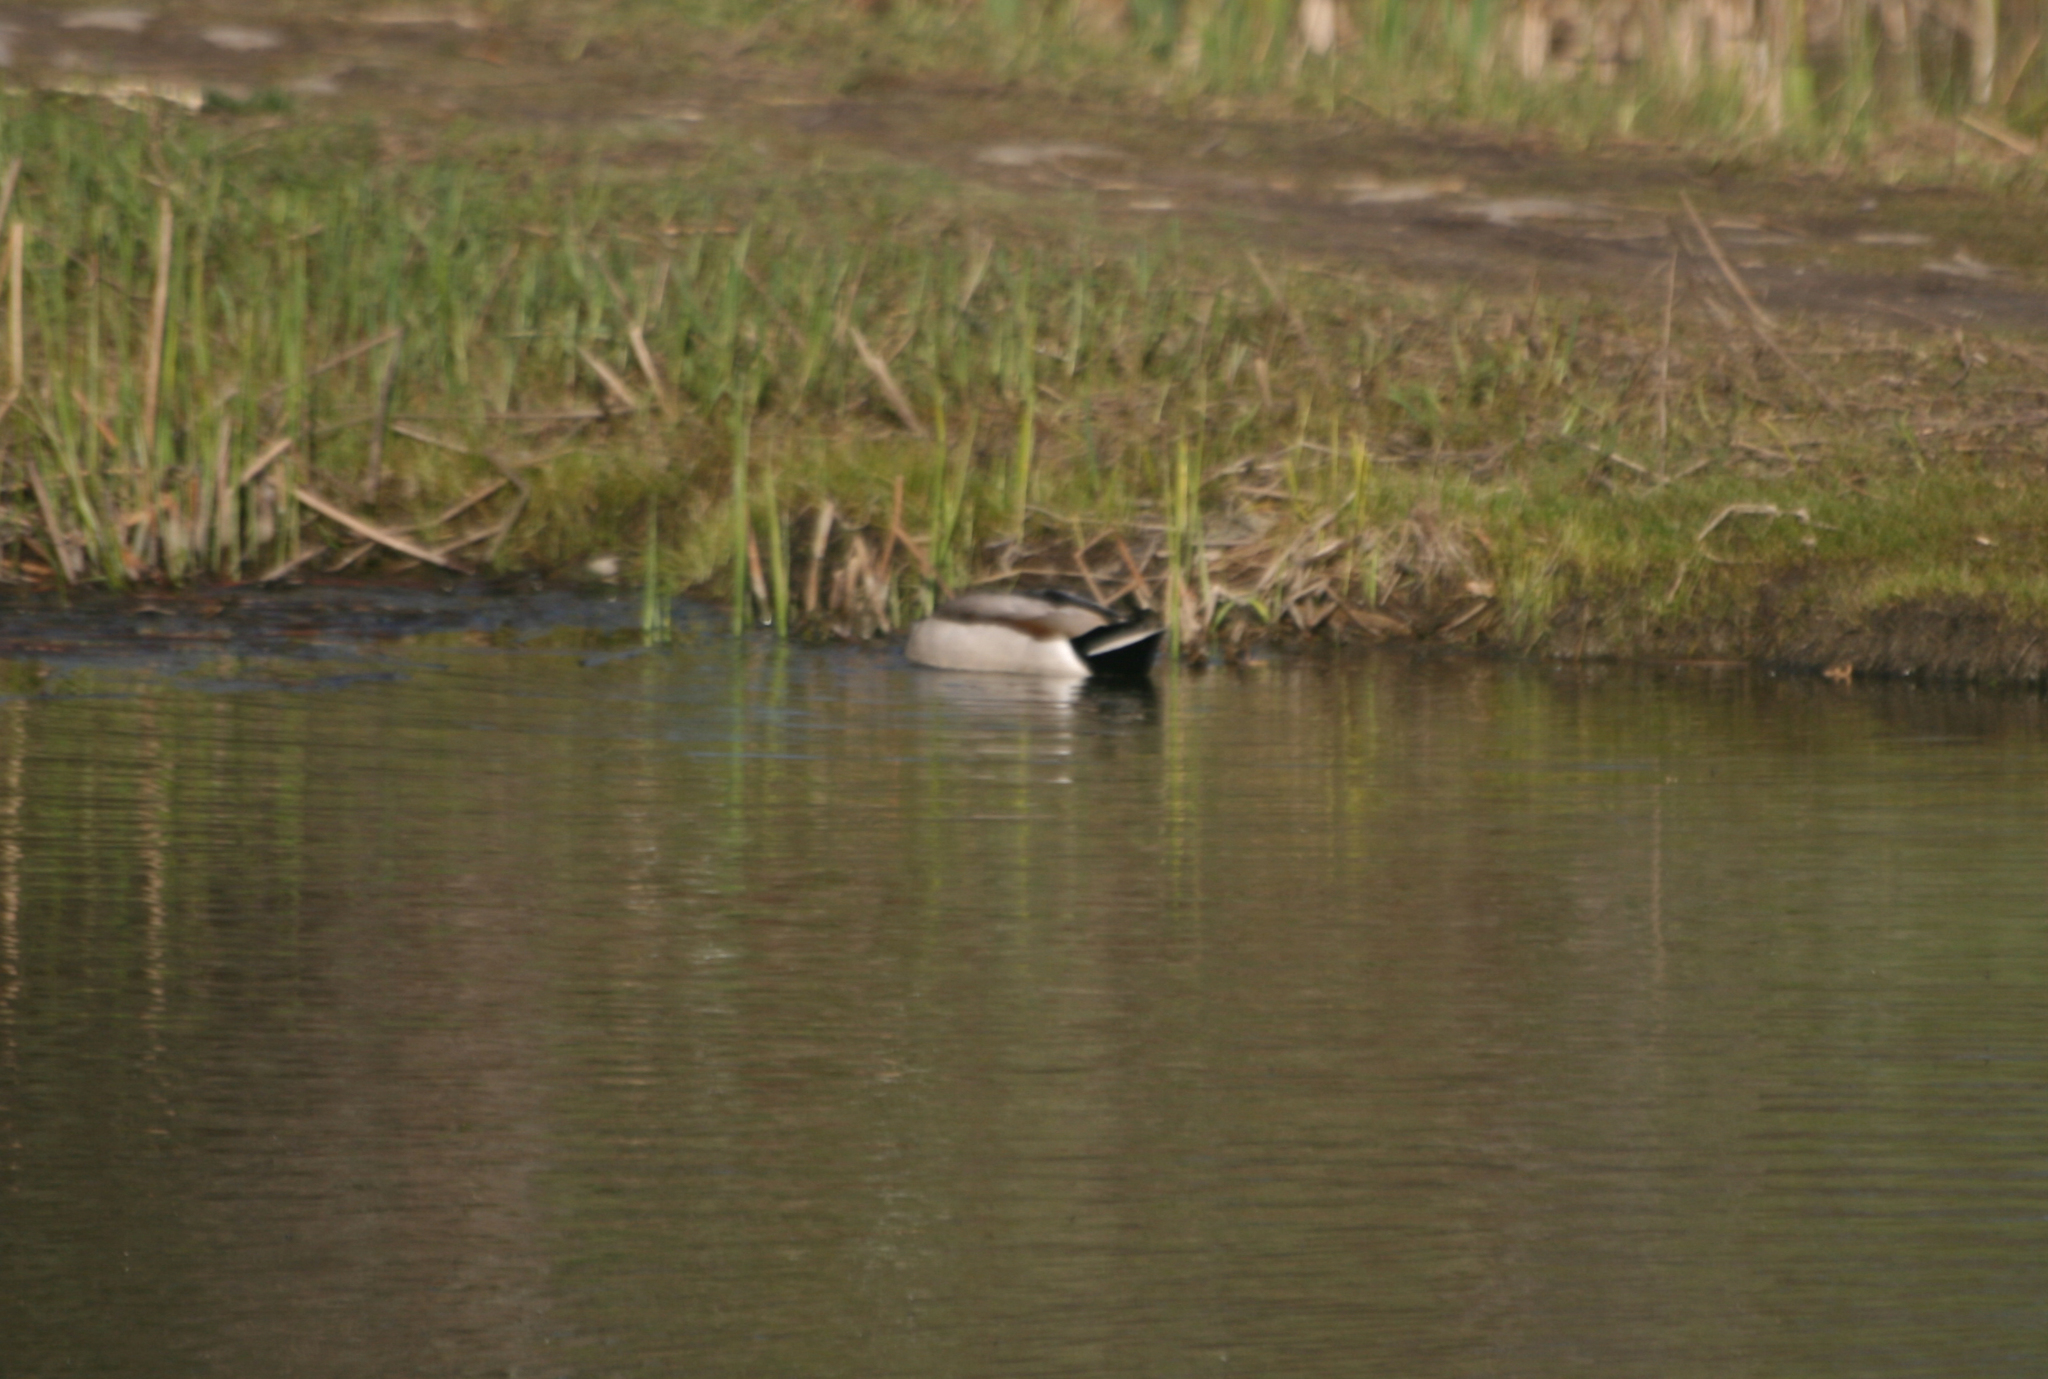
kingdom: Animalia
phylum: Chordata
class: Aves
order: Anseriformes
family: Anatidae
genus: Anas
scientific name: Anas platyrhynchos
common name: Mallard
